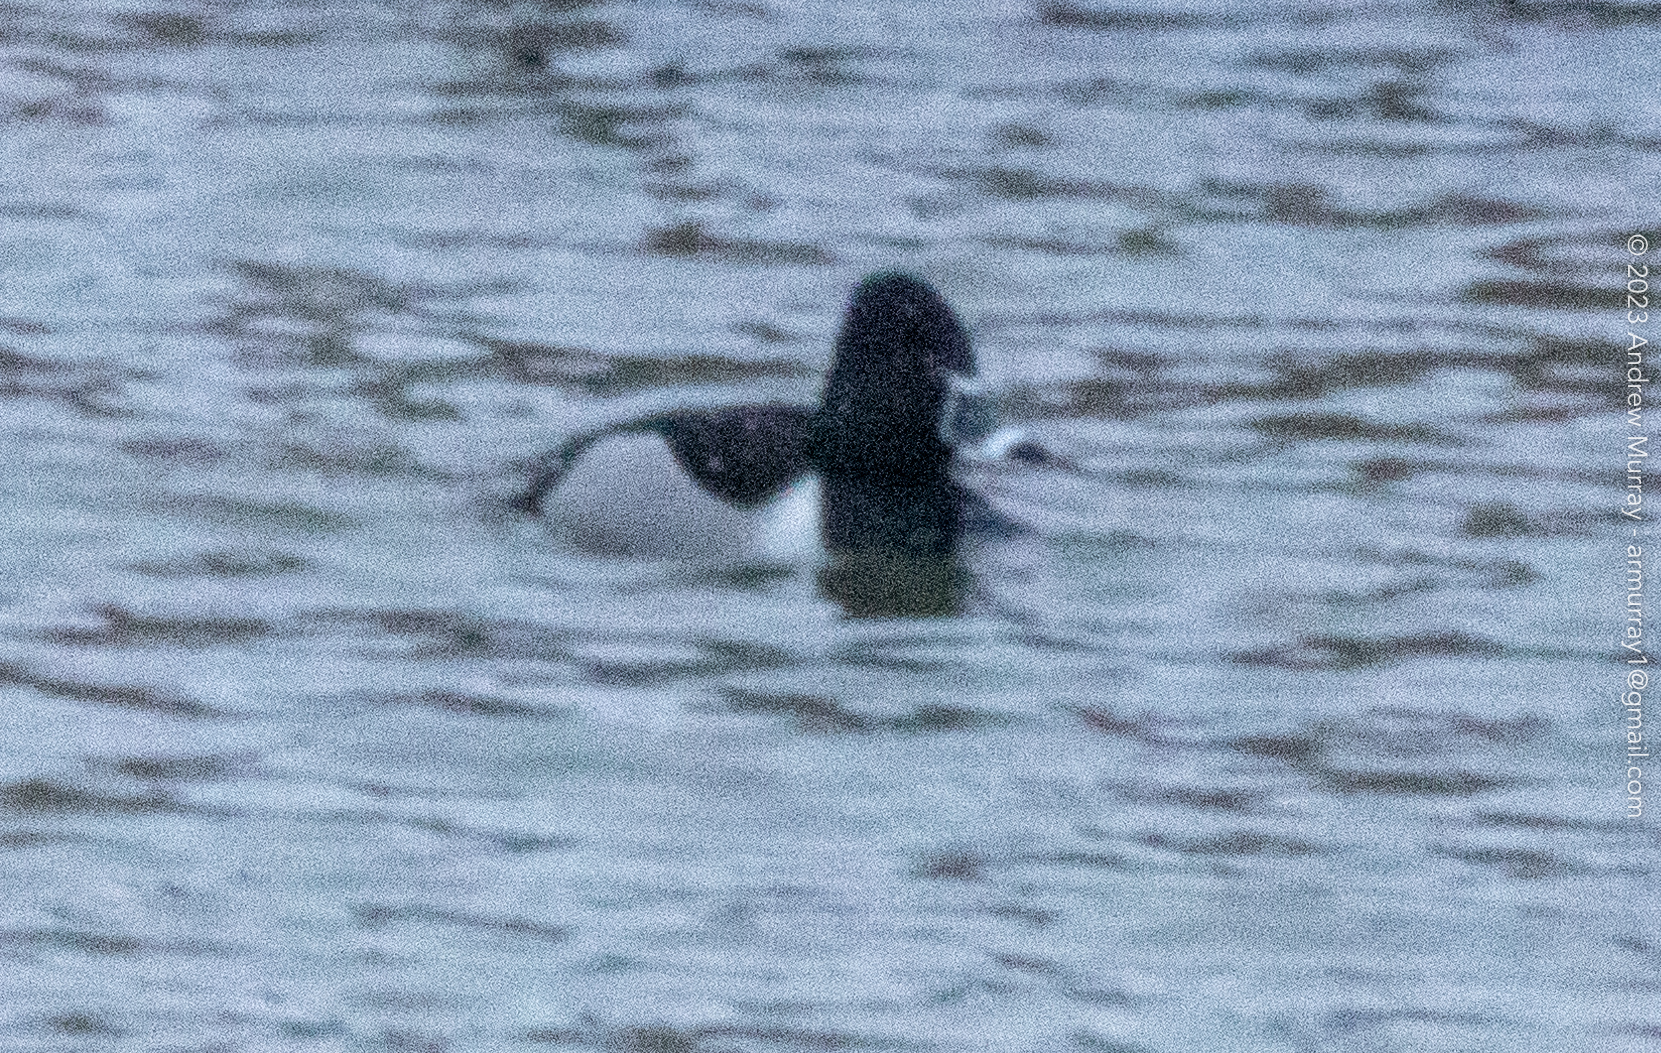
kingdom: Animalia
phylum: Chordata
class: Aves
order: Anseriformes
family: Anatidae
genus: Aythya
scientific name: Aythya collaris
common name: Ring-necked duck
